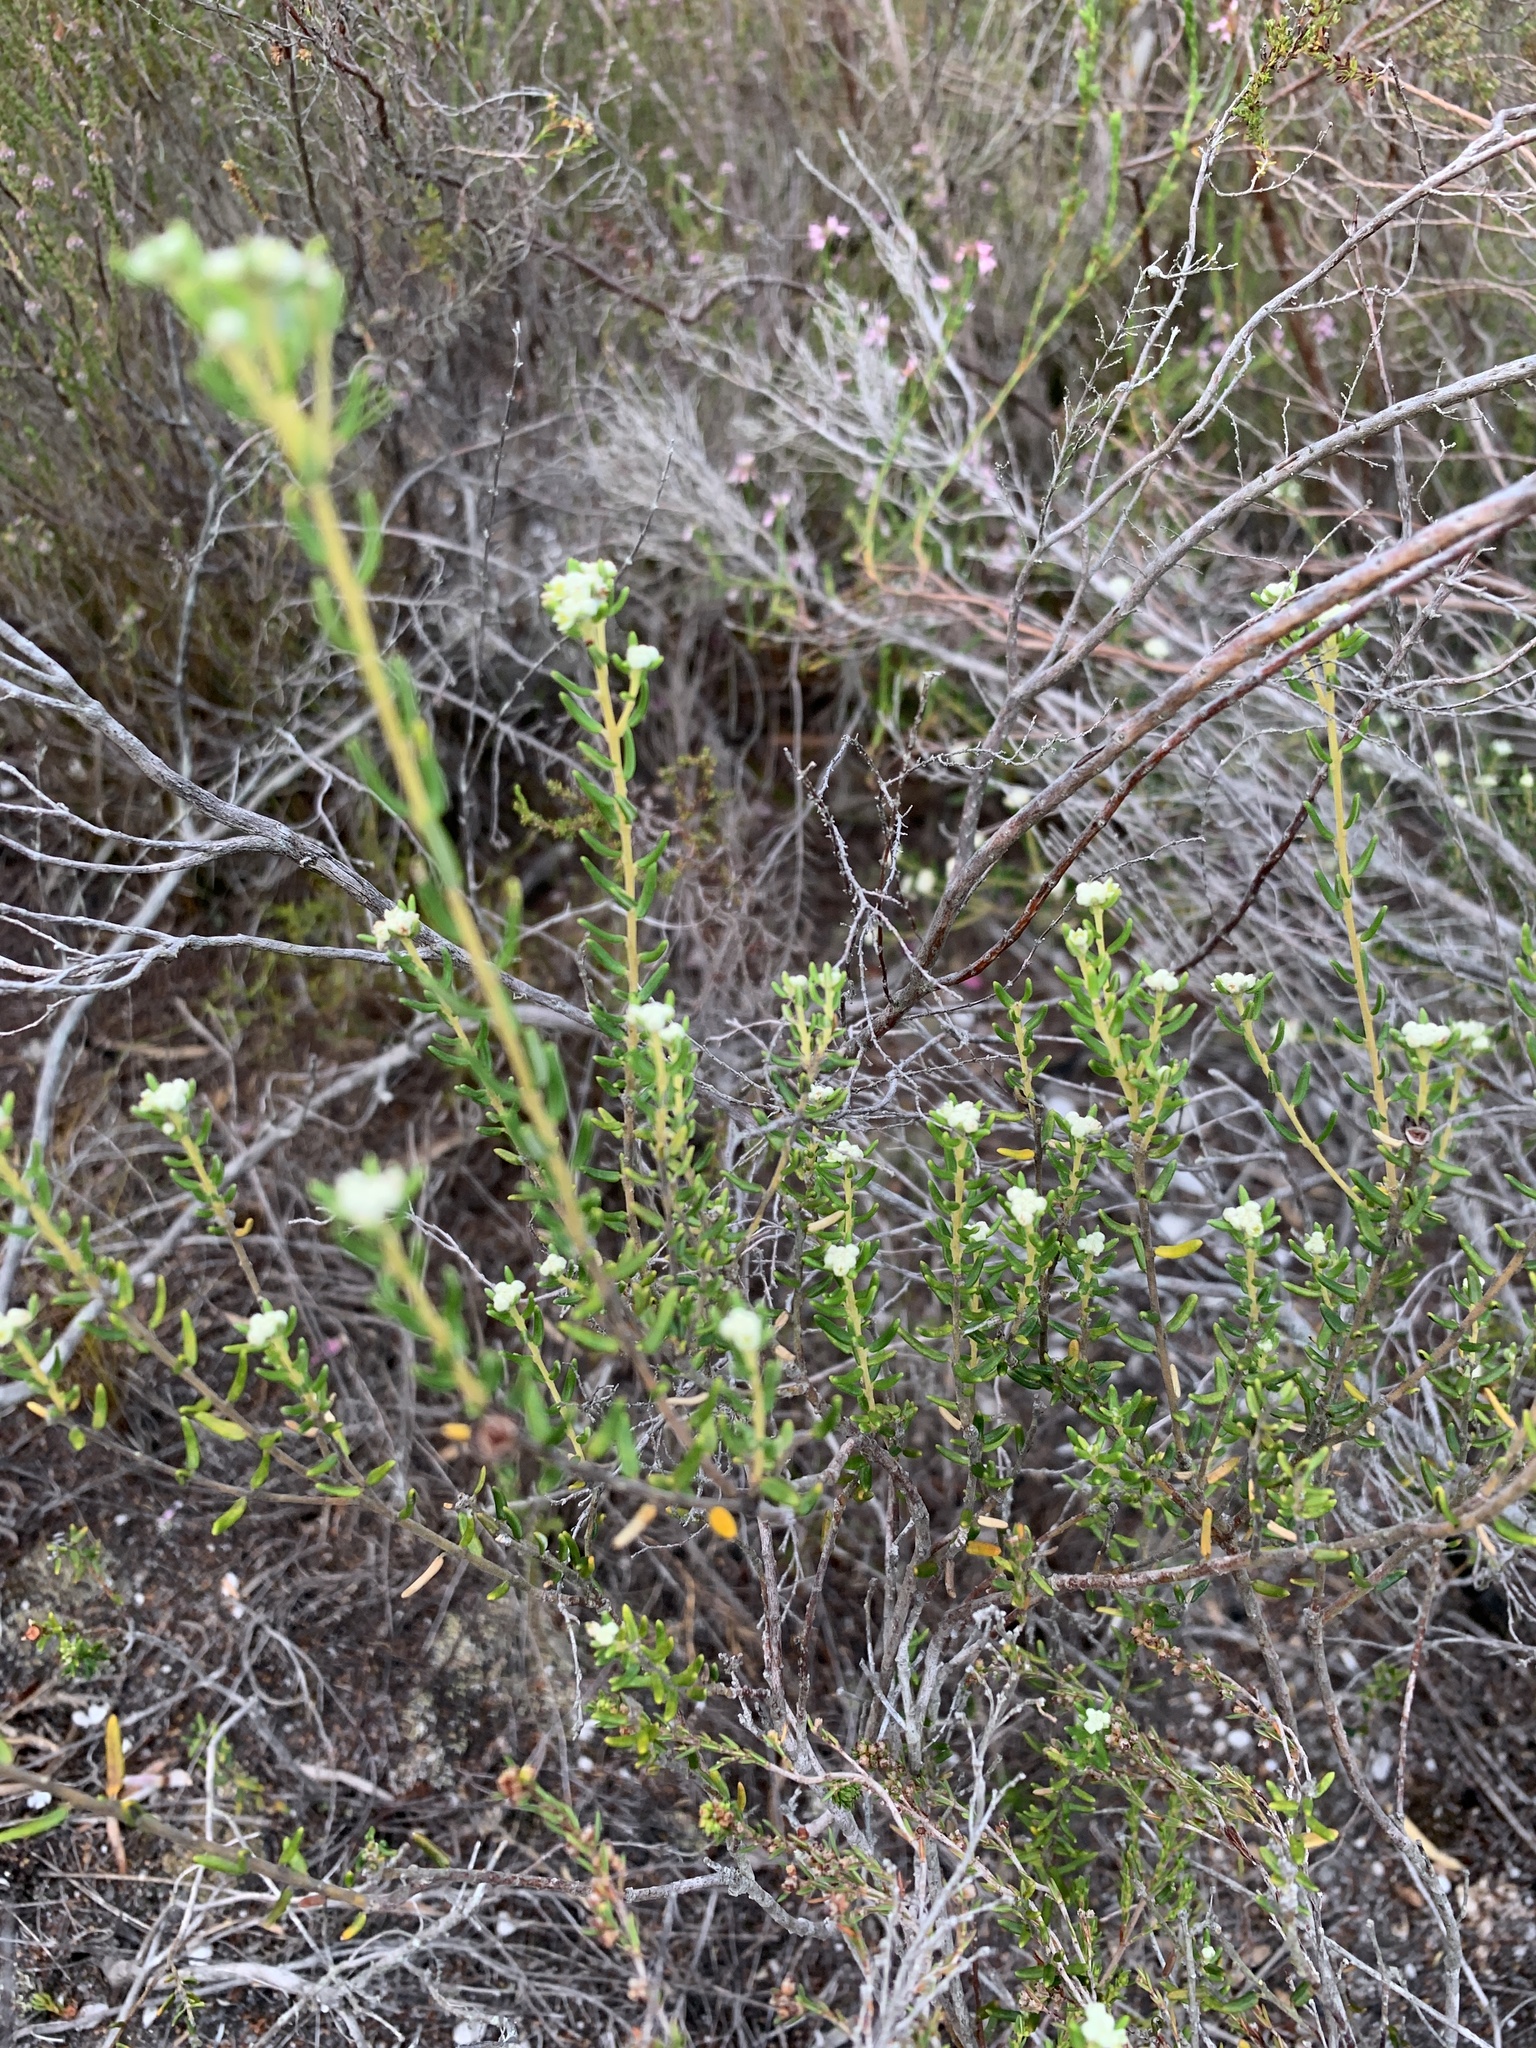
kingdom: Plantae
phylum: Tracheophyta
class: Magnoliopsida
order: Rosales
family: Rhamnaceae
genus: Phylica
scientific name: Phylica lasiocarpa
